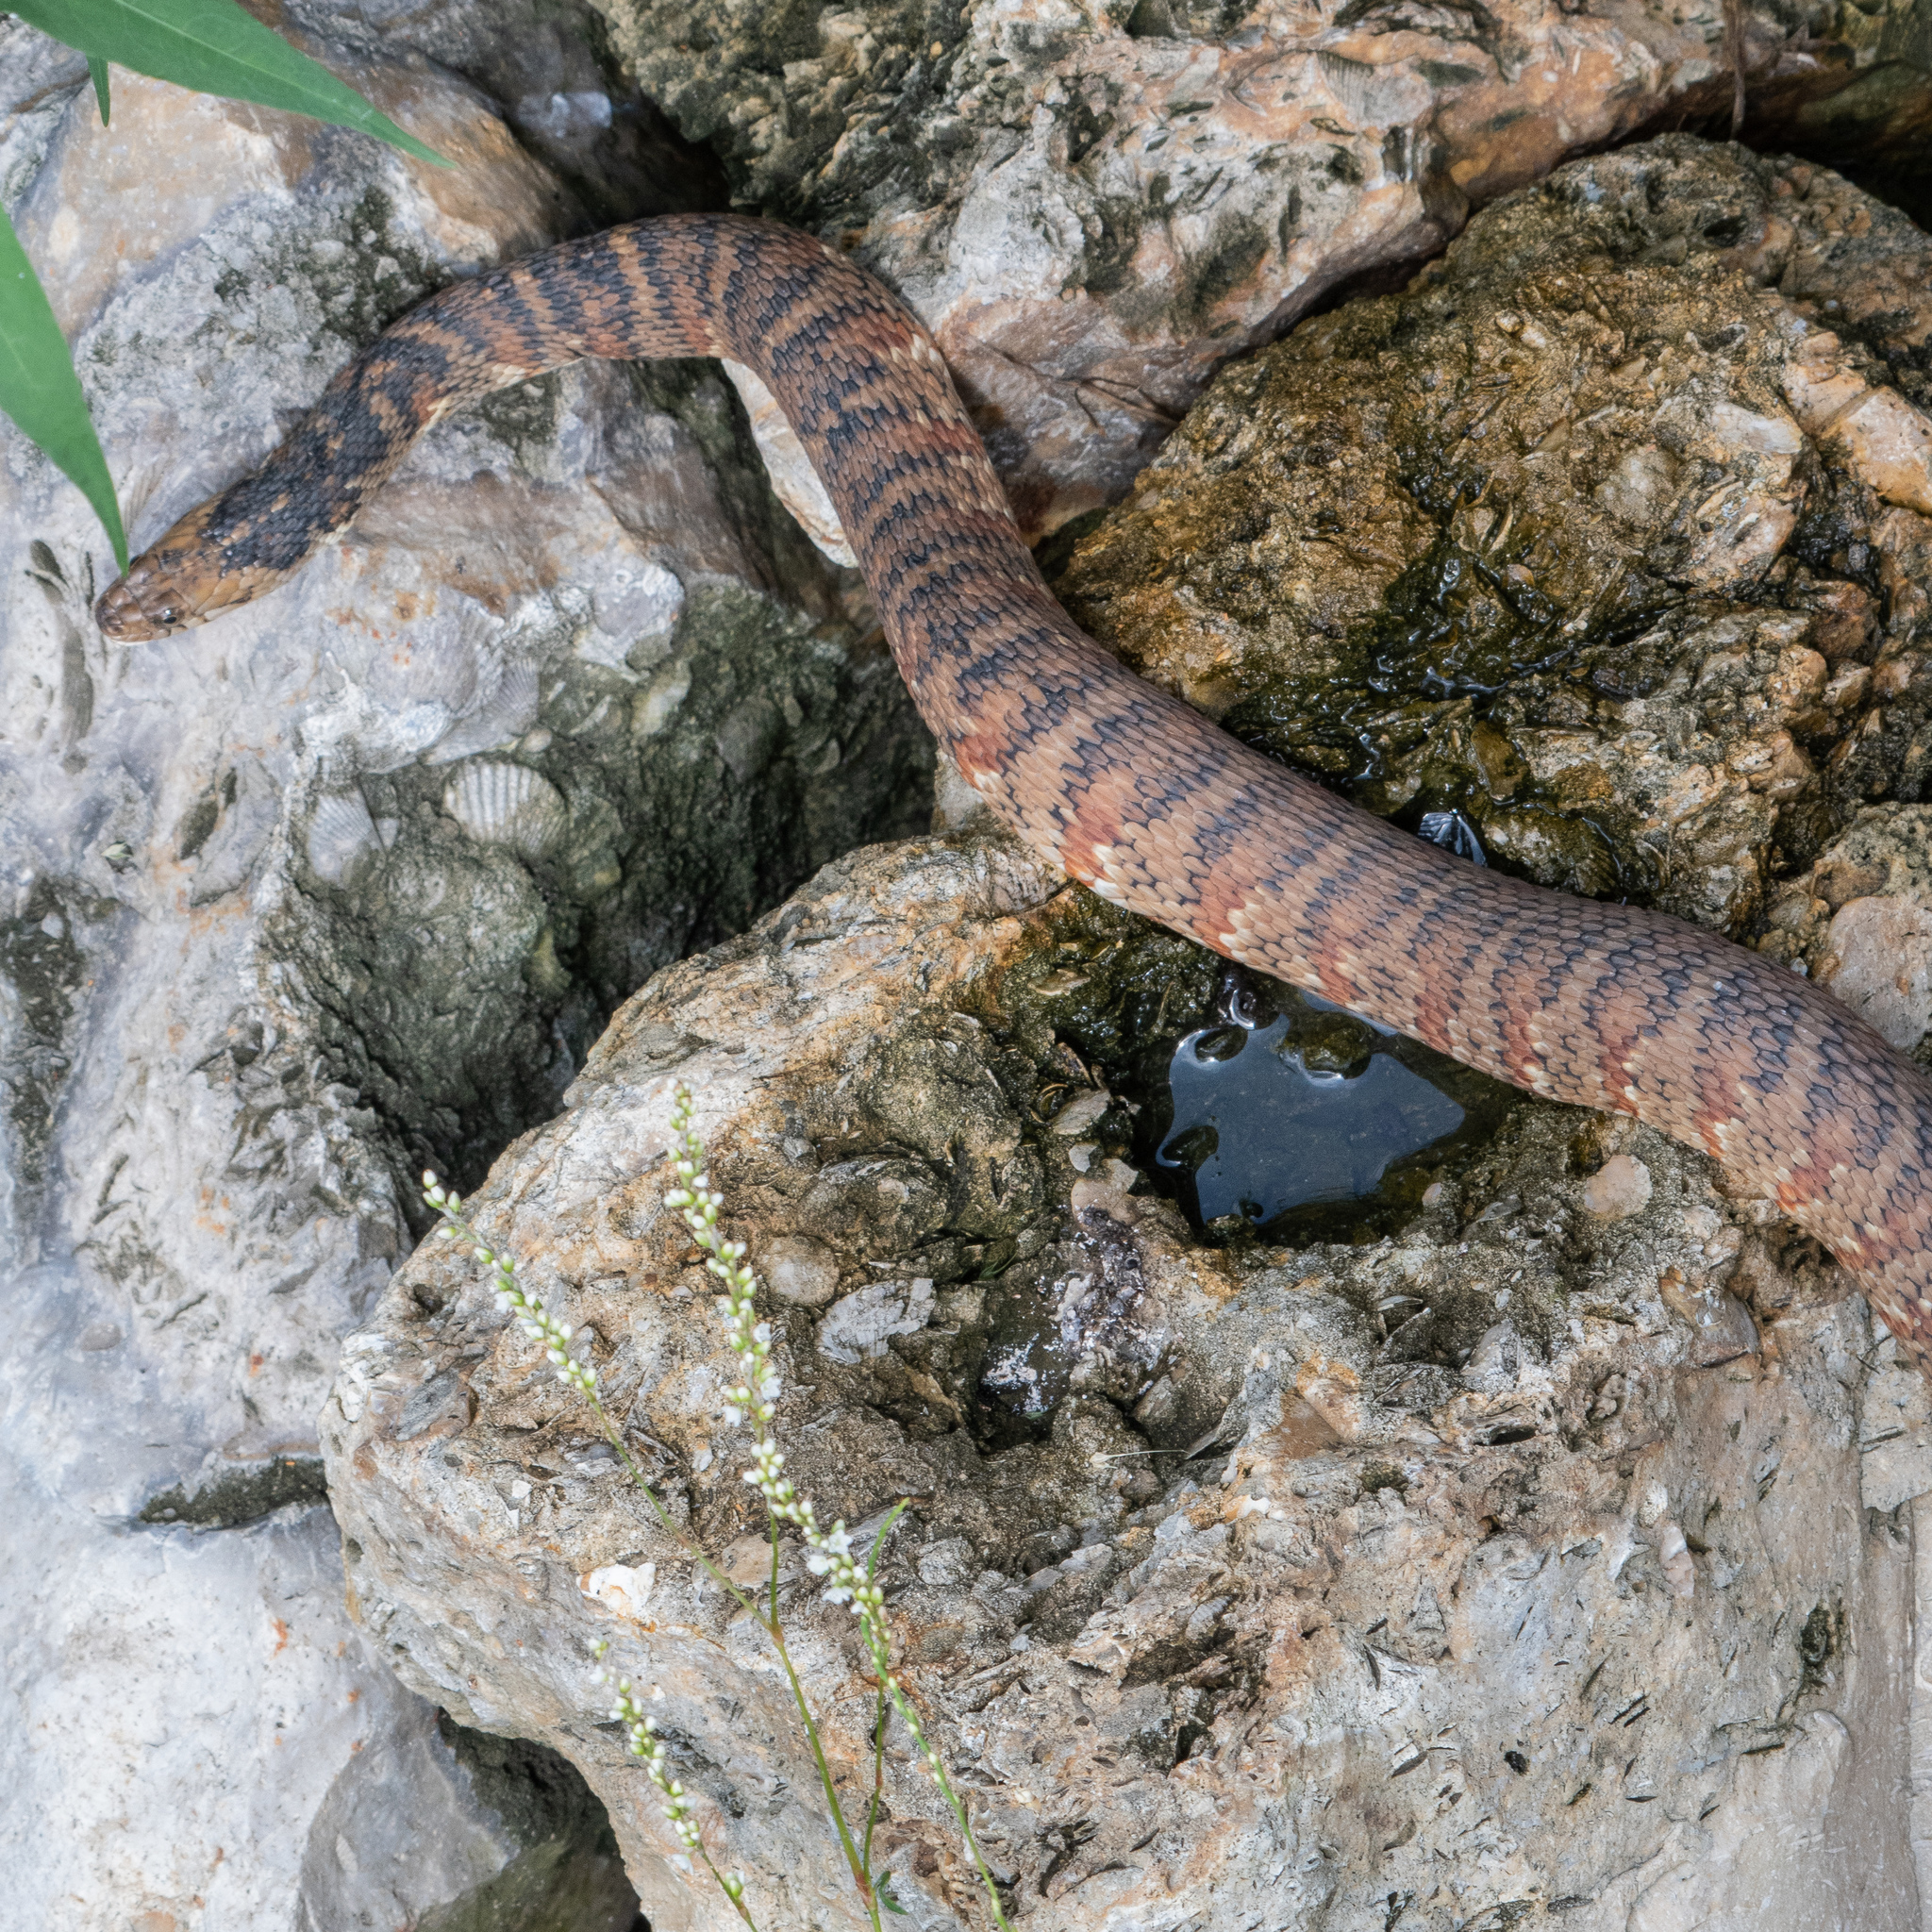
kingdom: Animalia
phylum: Chordata
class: Squamata
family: Colubridae
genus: Nerodia
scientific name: Nerodia fasciata
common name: Southern water snake
